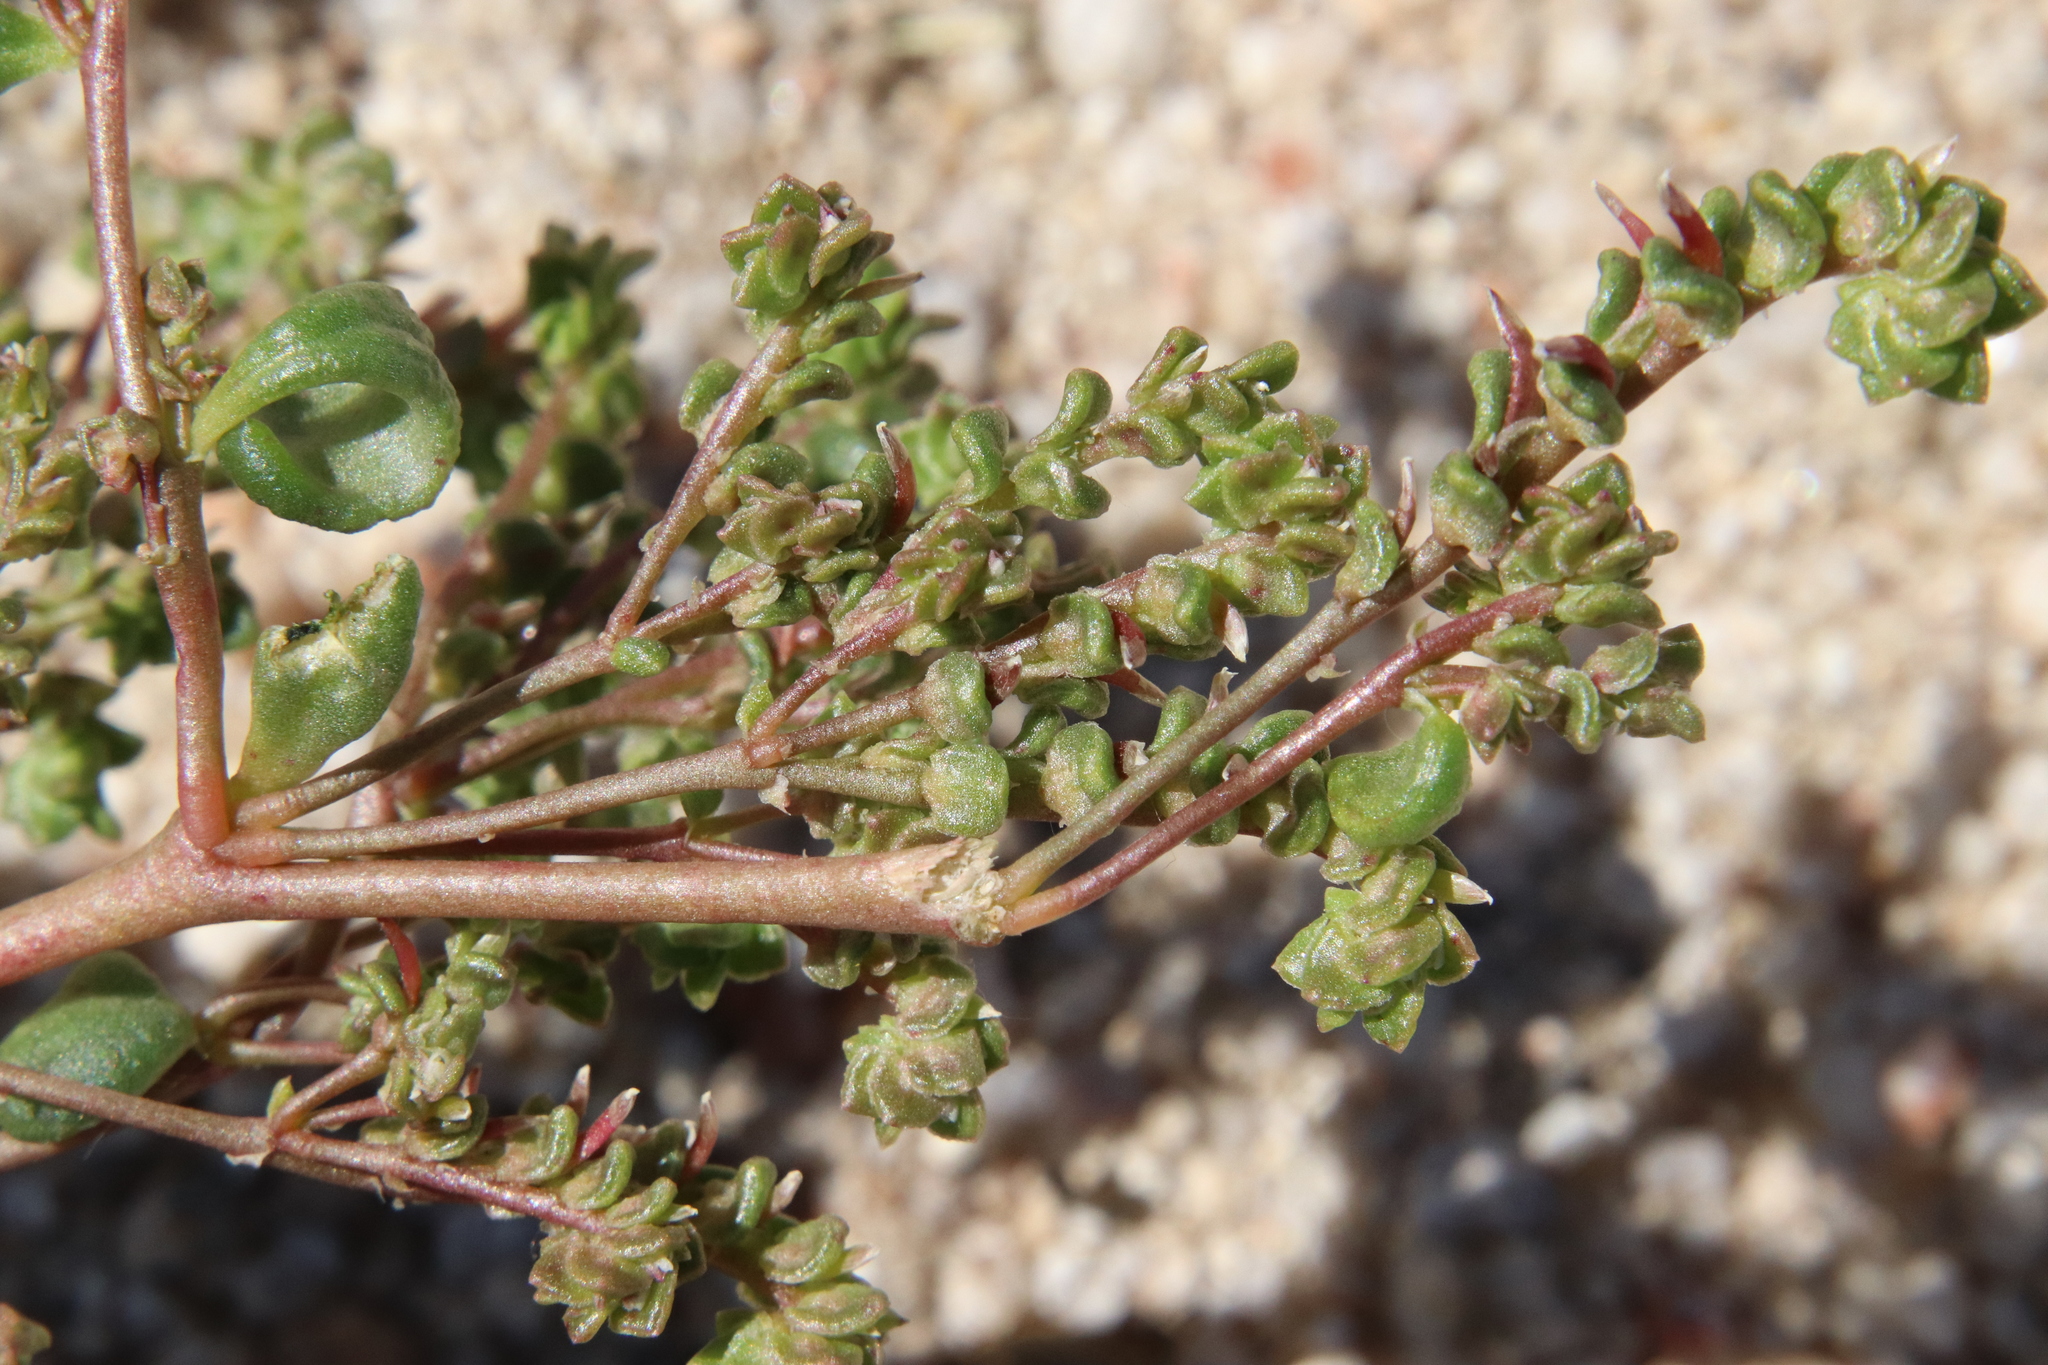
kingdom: Plantae
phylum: Tracheophyta
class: Magnoliopsida
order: Caryophyllales
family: Montiaceae
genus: Calyptridium
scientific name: Calyptridium monandrum
